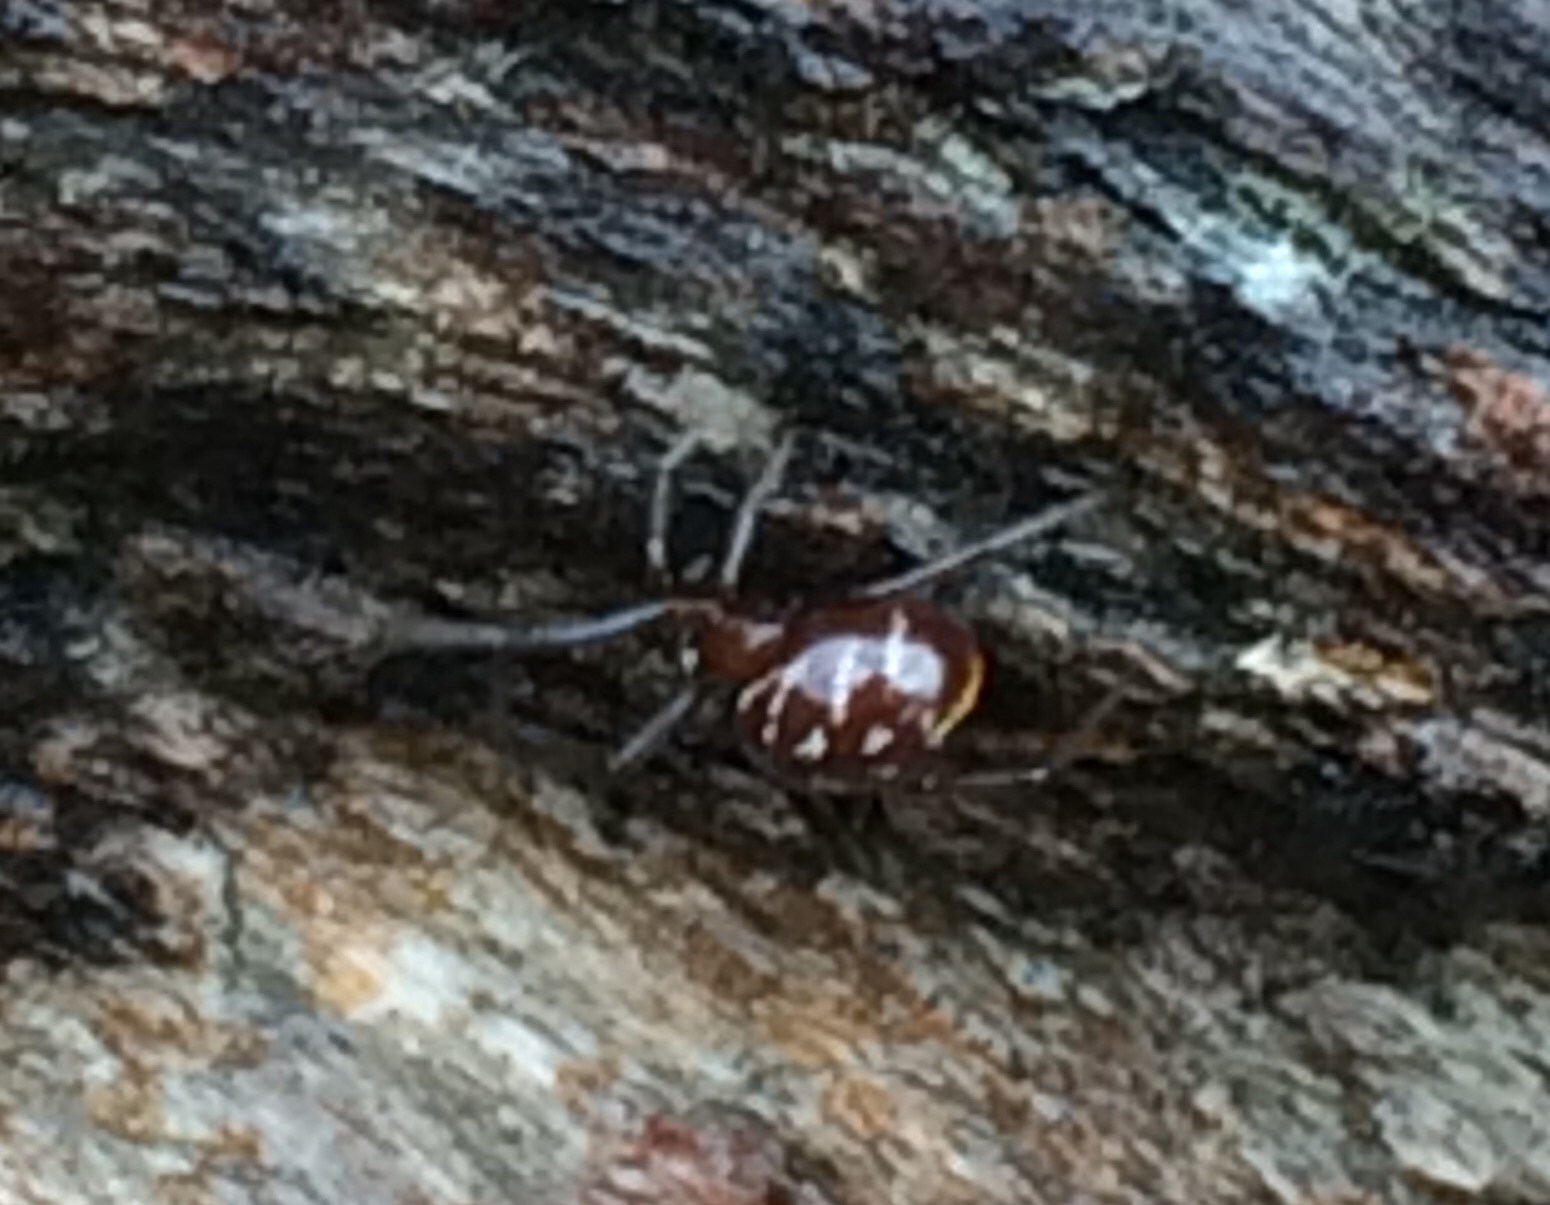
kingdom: Animalia
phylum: Arthropoda
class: Arachnida
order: Araneae
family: Theridiidae
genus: Steatoda
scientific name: Steatoda capensis
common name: Cobweb weaver
